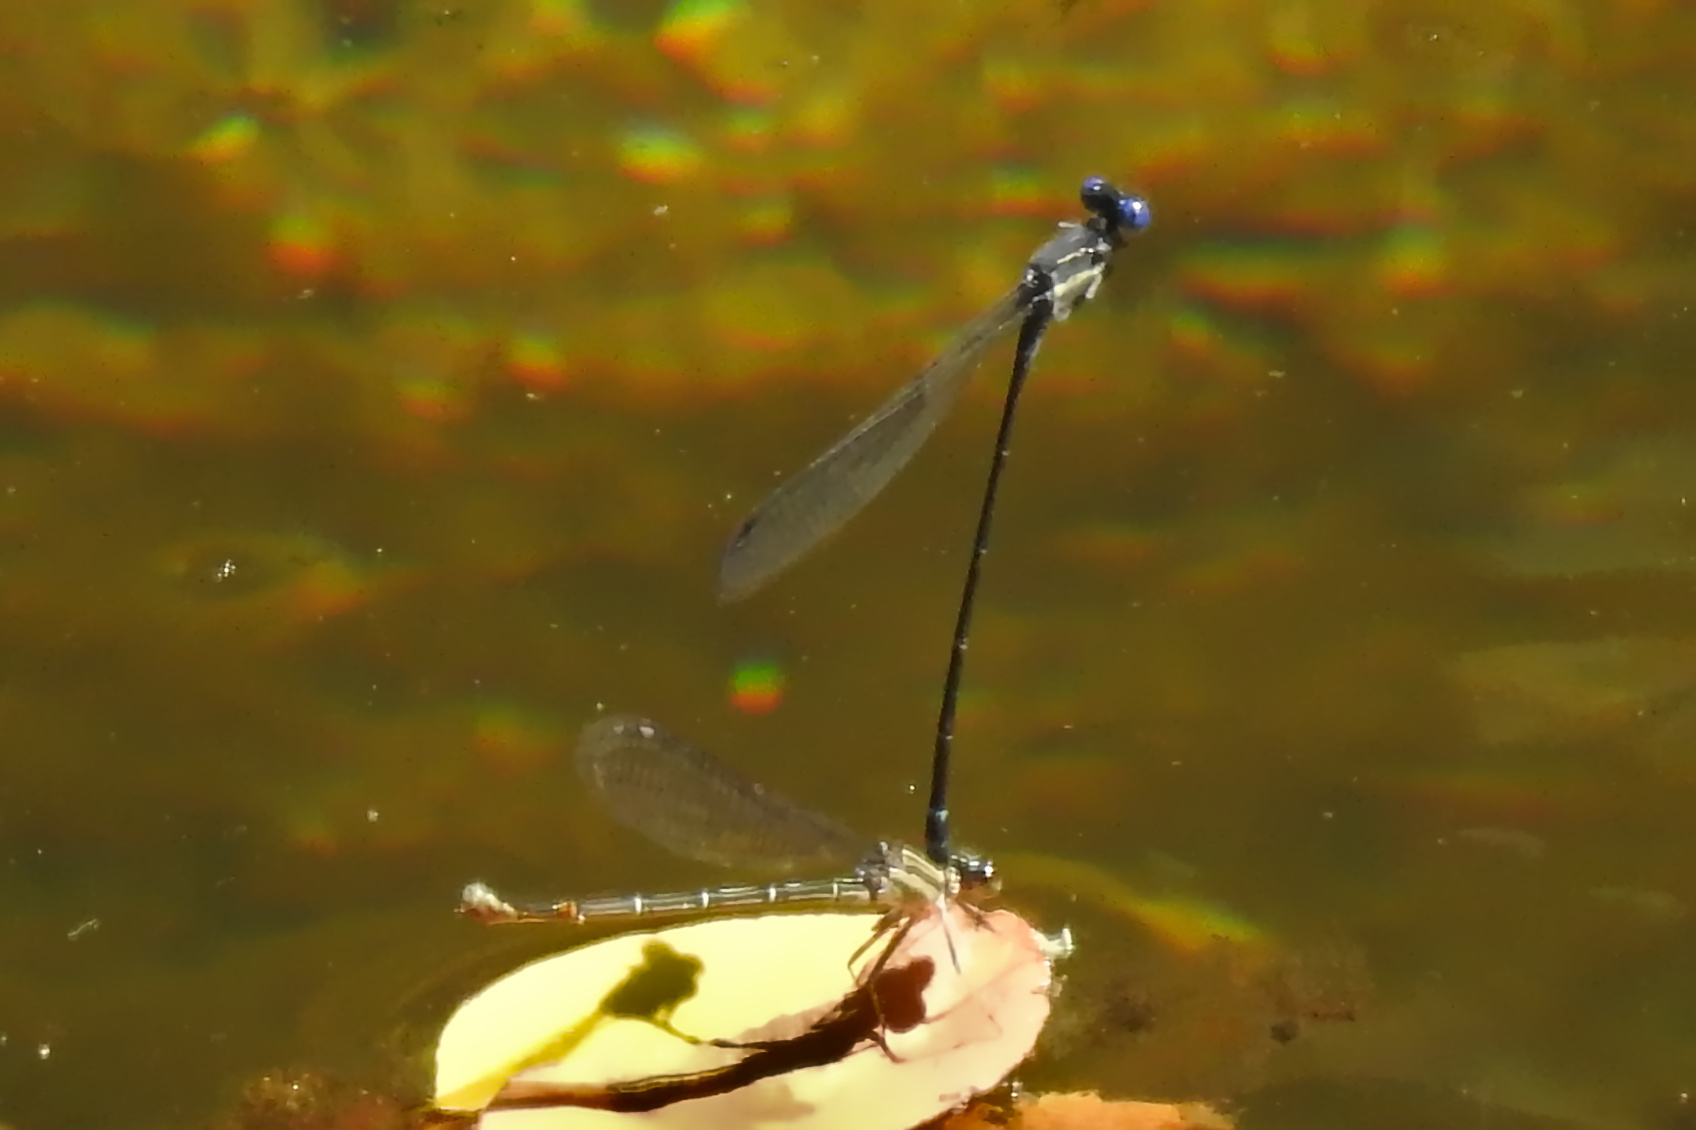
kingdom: Animalia
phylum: Arthropoda
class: Insecta
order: Odonata
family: Coenagrionidae
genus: Argia
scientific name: Argia translata
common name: Dusky dancer
